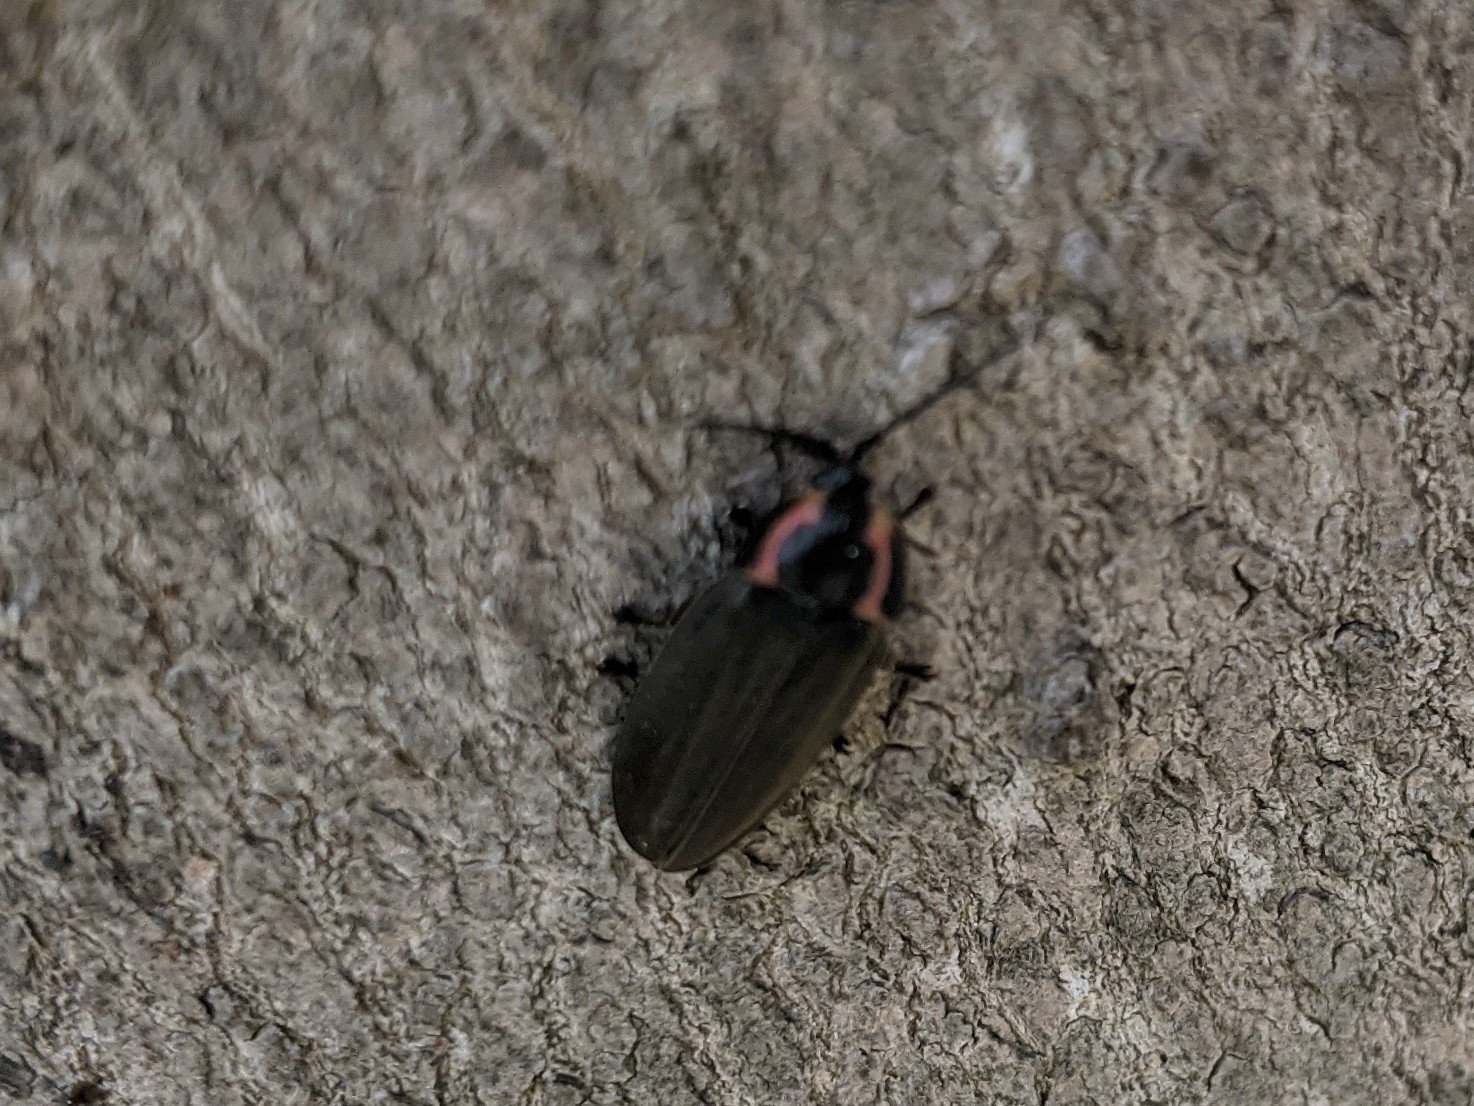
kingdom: Animalia
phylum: Arthropoda
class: Insecta
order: Coleoptera
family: Lampyridae
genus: Photinus
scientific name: Photinus corrusca
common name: Winter firefly
